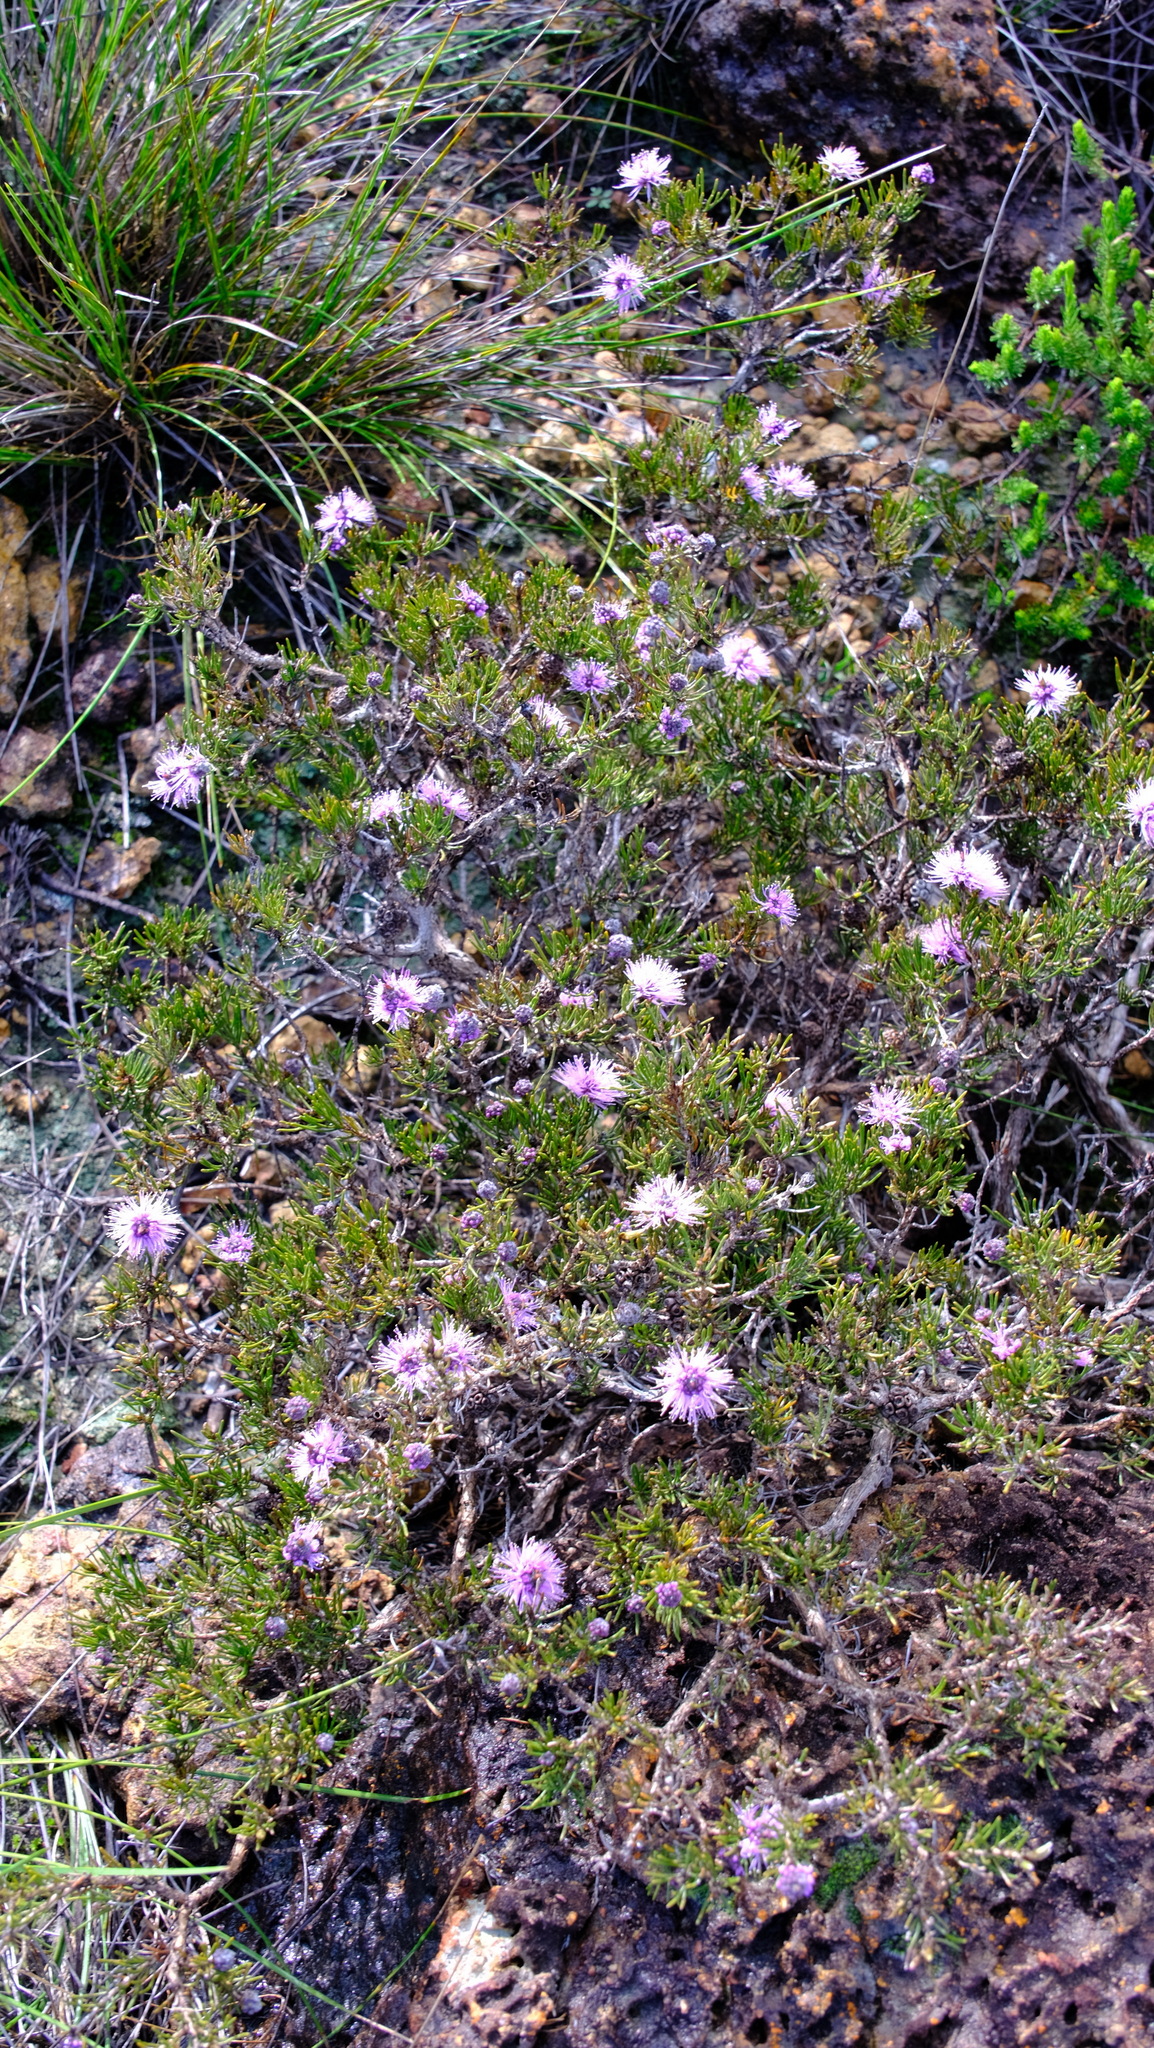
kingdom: Plantae
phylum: Tracheophyta
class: Magnoliopsida
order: Myrtales
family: Myrtaceae
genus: Melaleuca
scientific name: Melaleuca tinkeri
